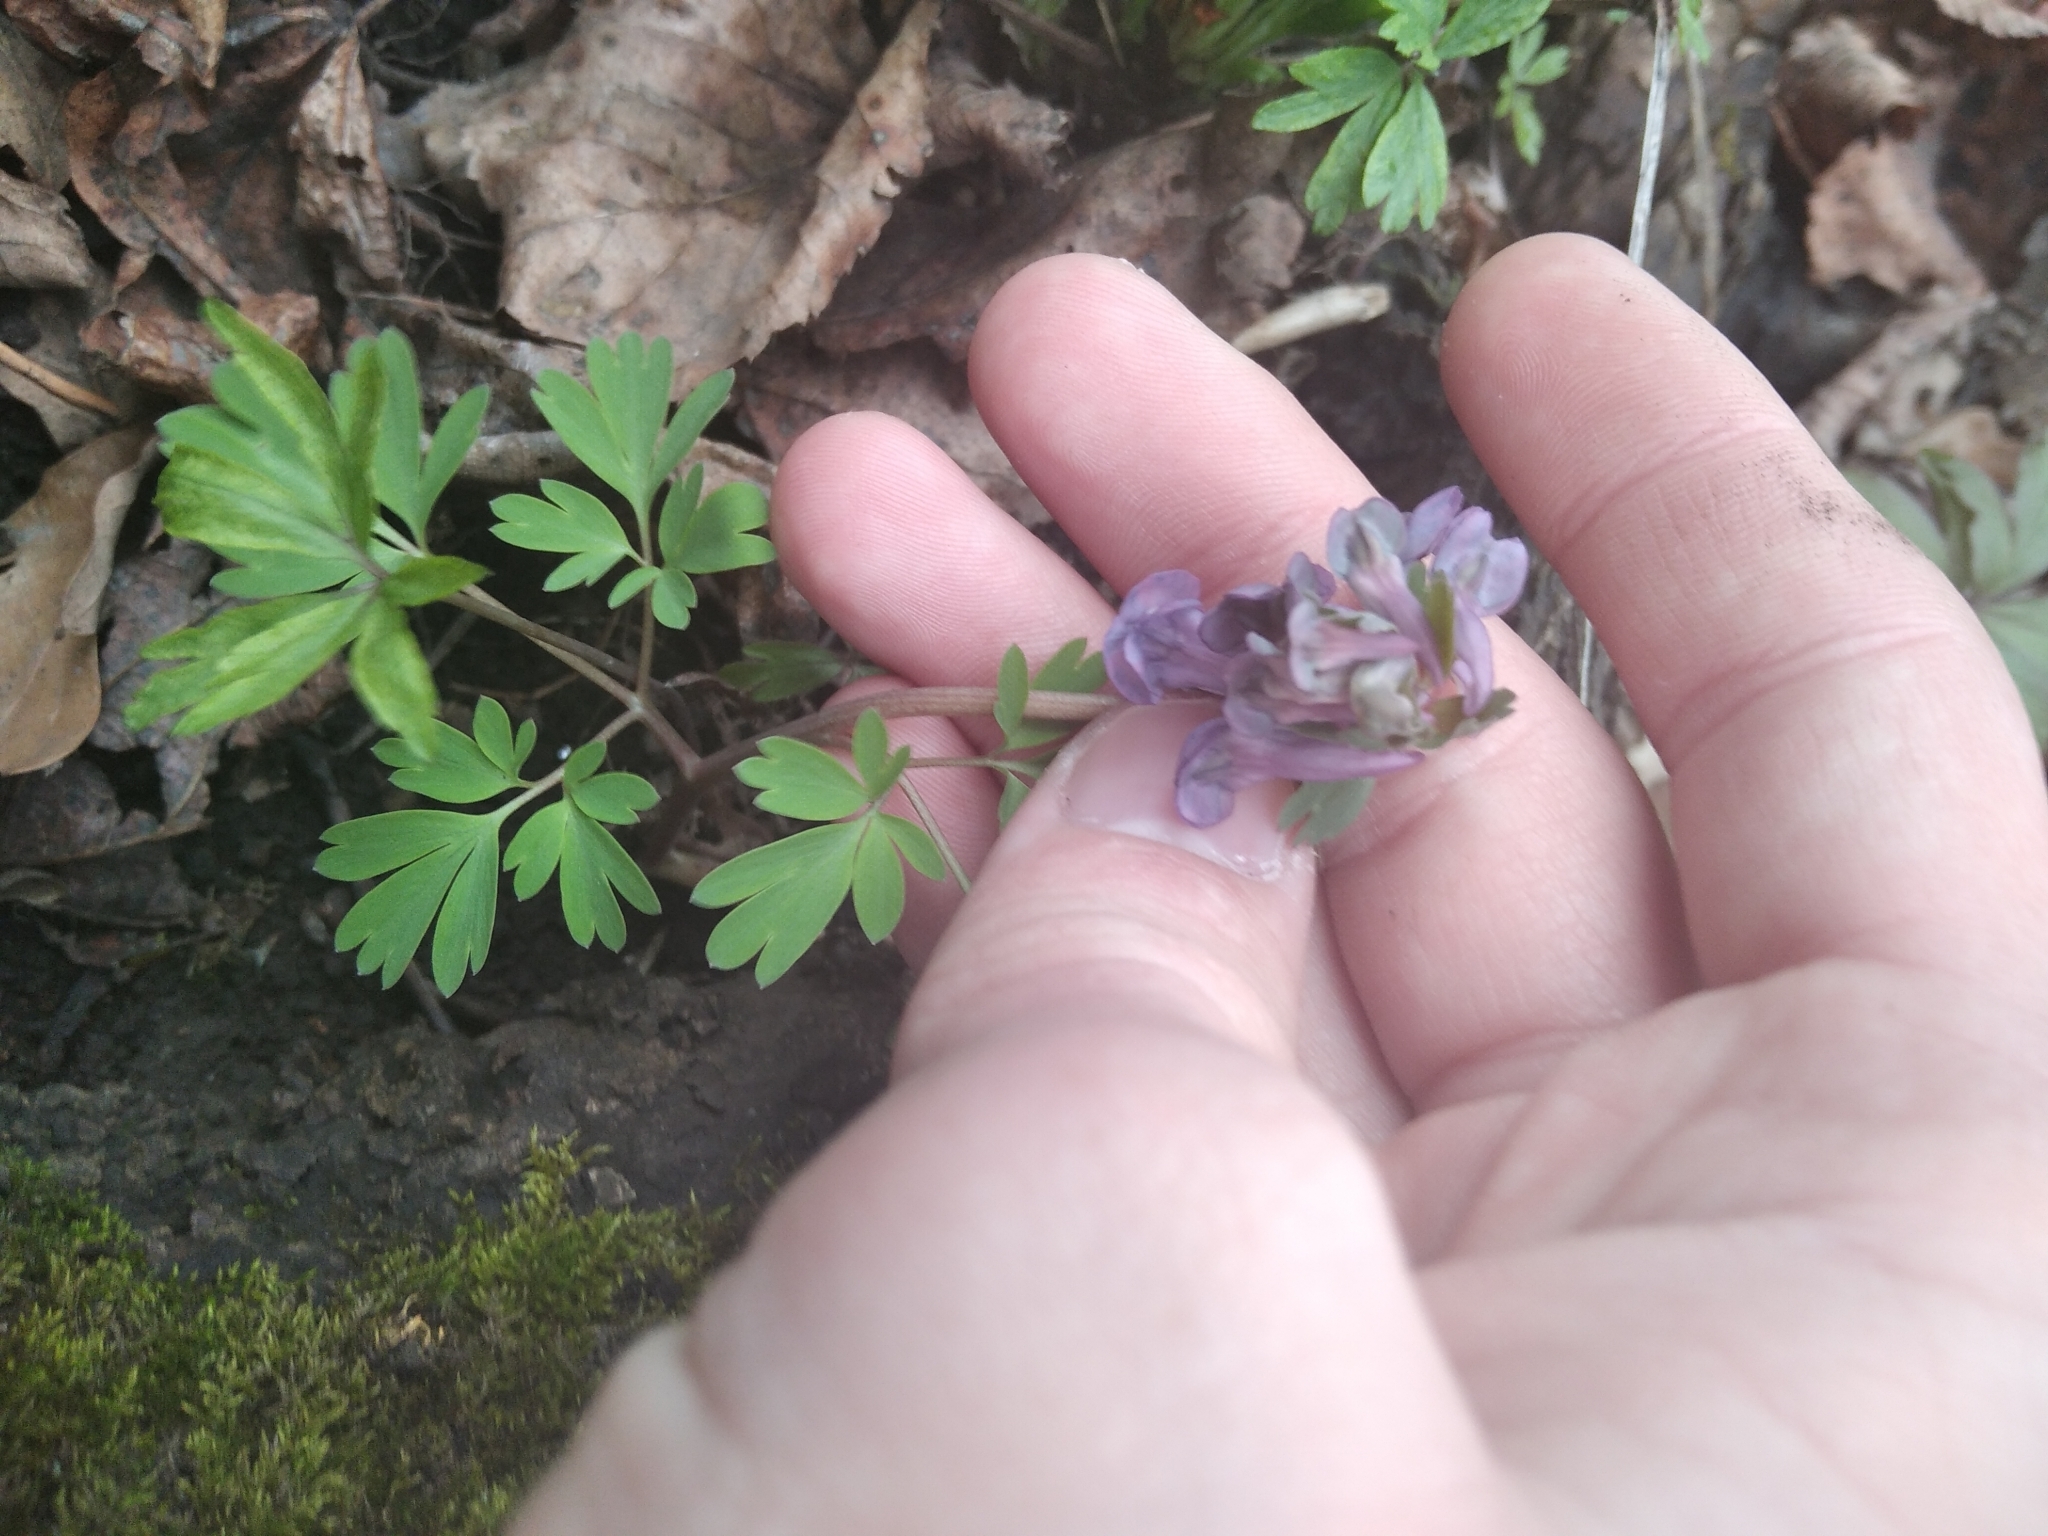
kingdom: Plantae
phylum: Tracheophyta
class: Magnoliopsida
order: Ranunculales
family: Papaveraceae
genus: Corydalis
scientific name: Corydalis solida
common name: Bird-in-a-bush
